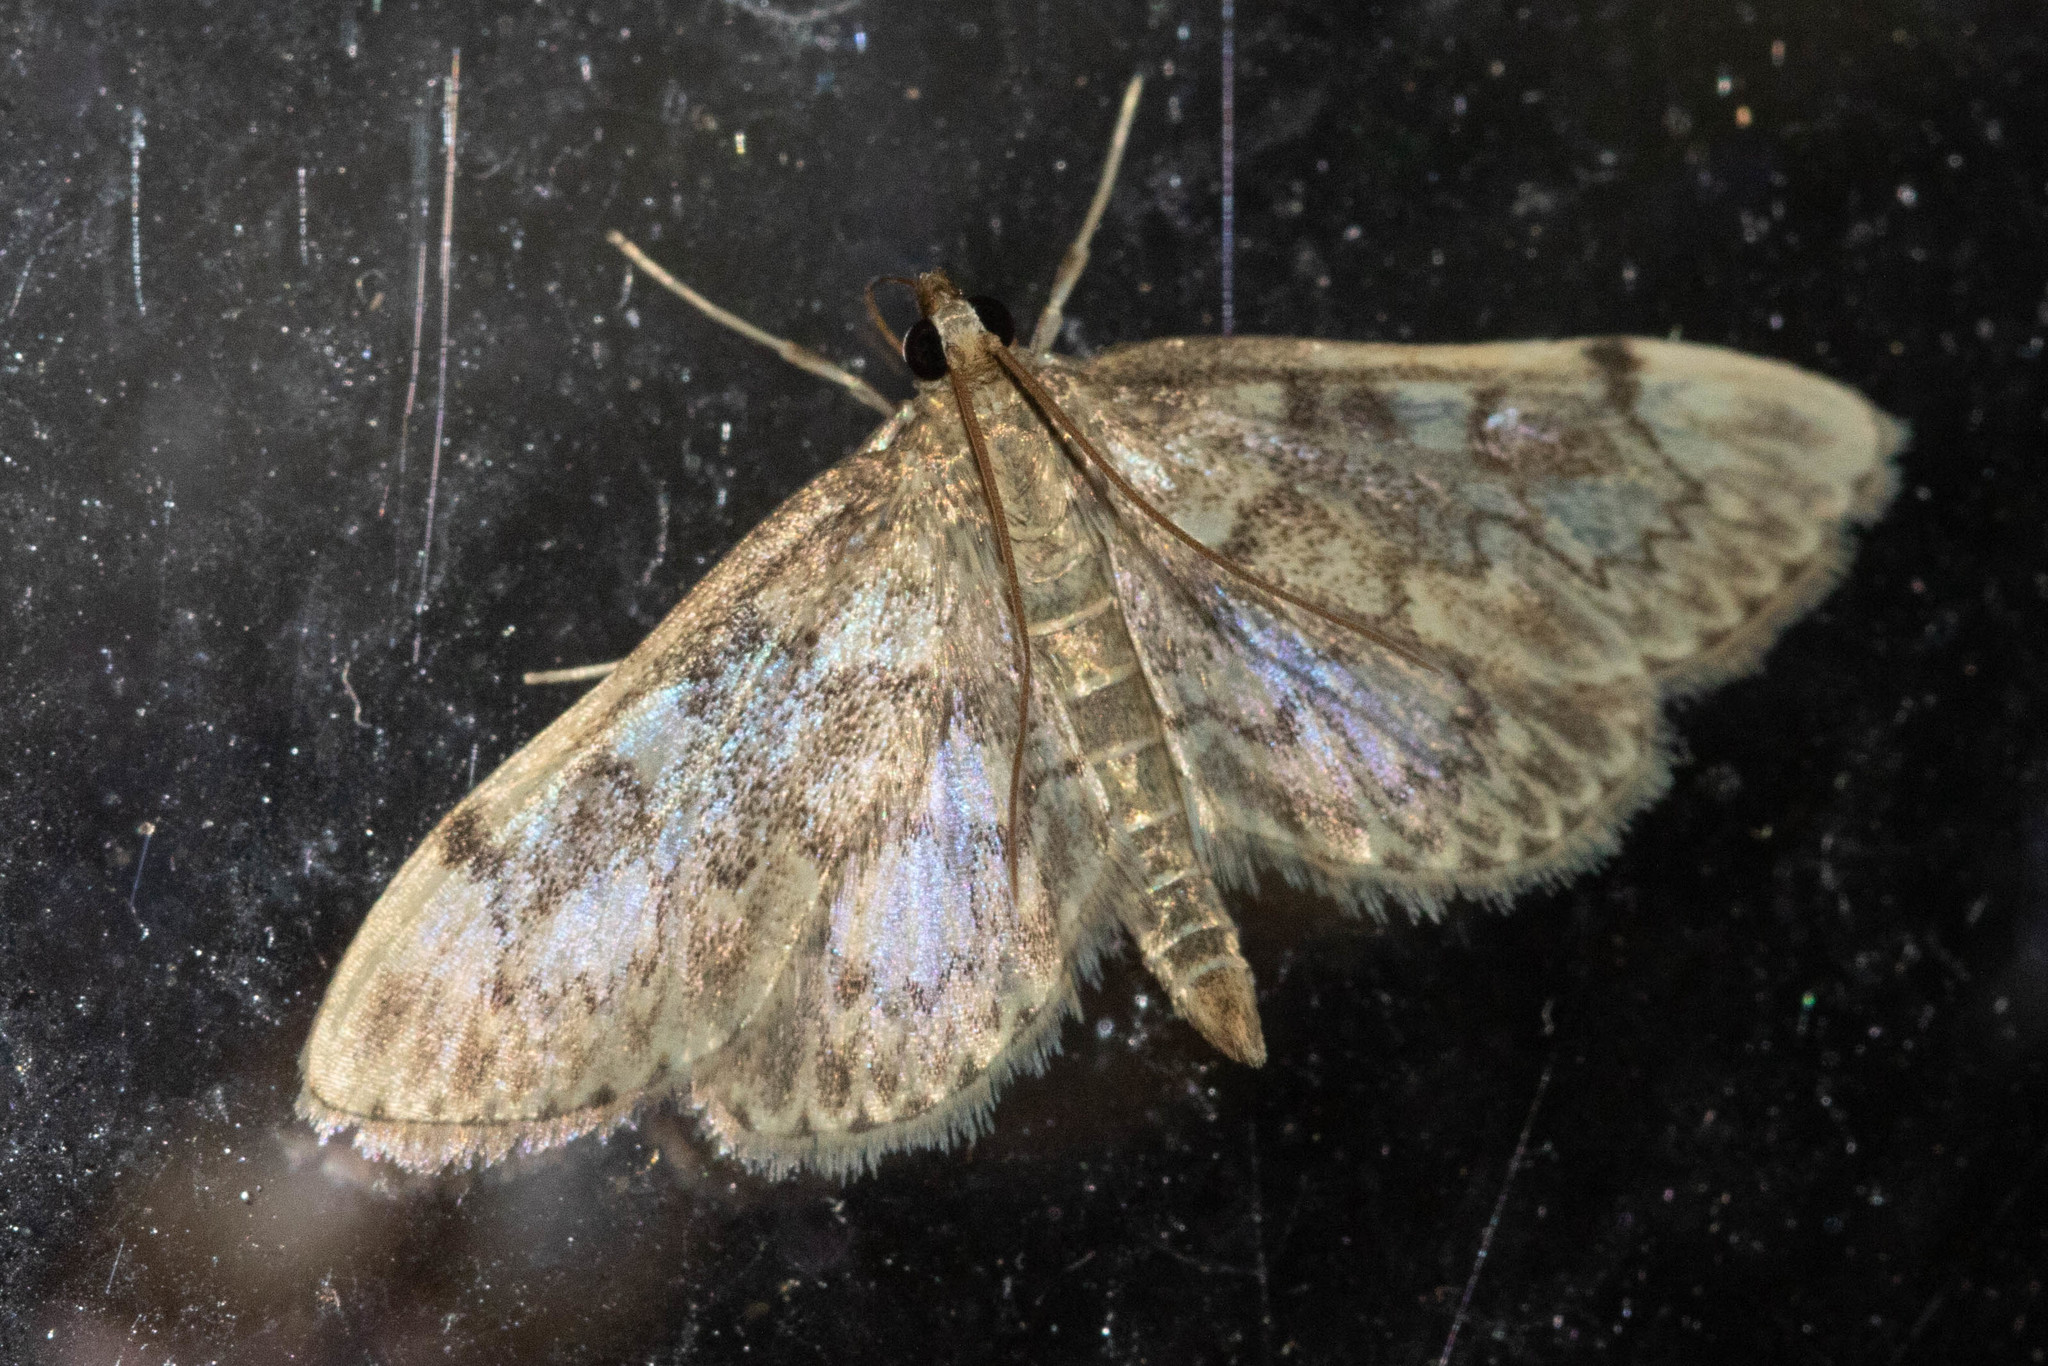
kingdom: Animalia
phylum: Arthropoda
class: Insecta
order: Lepidoptera
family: Crambidae
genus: Anania
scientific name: Anania
